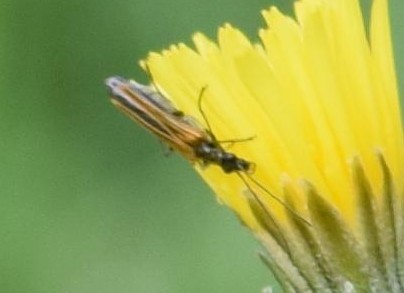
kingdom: Animalia
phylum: Arthropoda
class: Insecta
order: Coleoptera
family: Oedemeridae
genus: Oedemera
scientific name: Oedemera femorata
